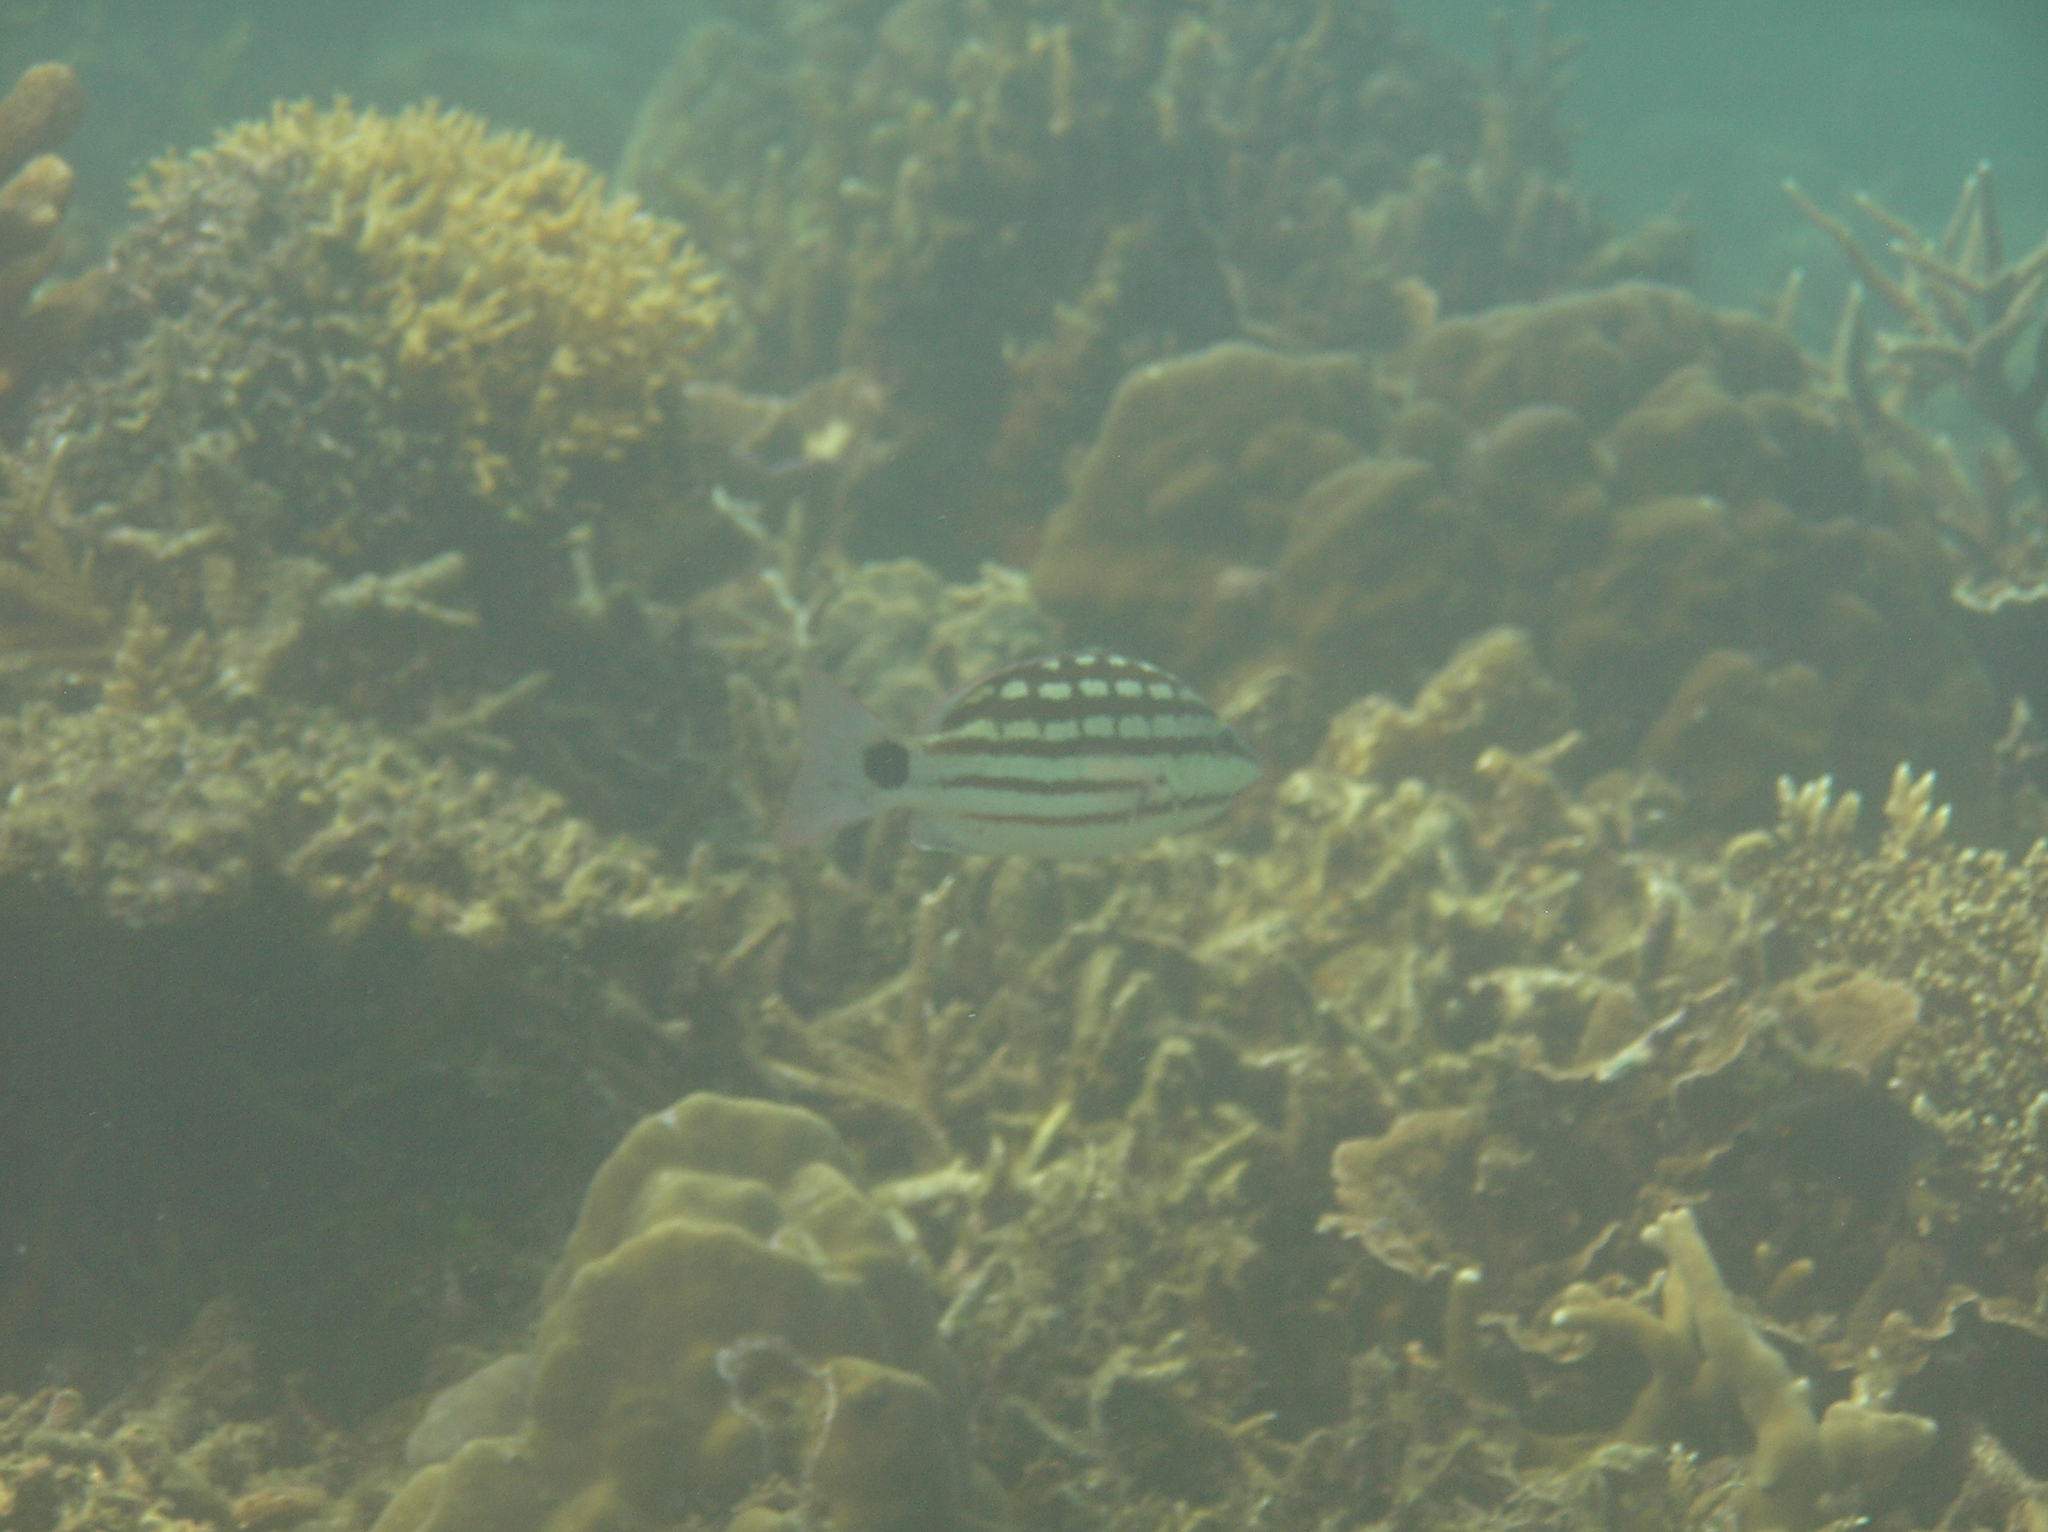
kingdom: Animalia
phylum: Chordata
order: Perciformes
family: Lutjanidae
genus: Lutjanus
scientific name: Lutjanus decussatus
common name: Checkered snapper
